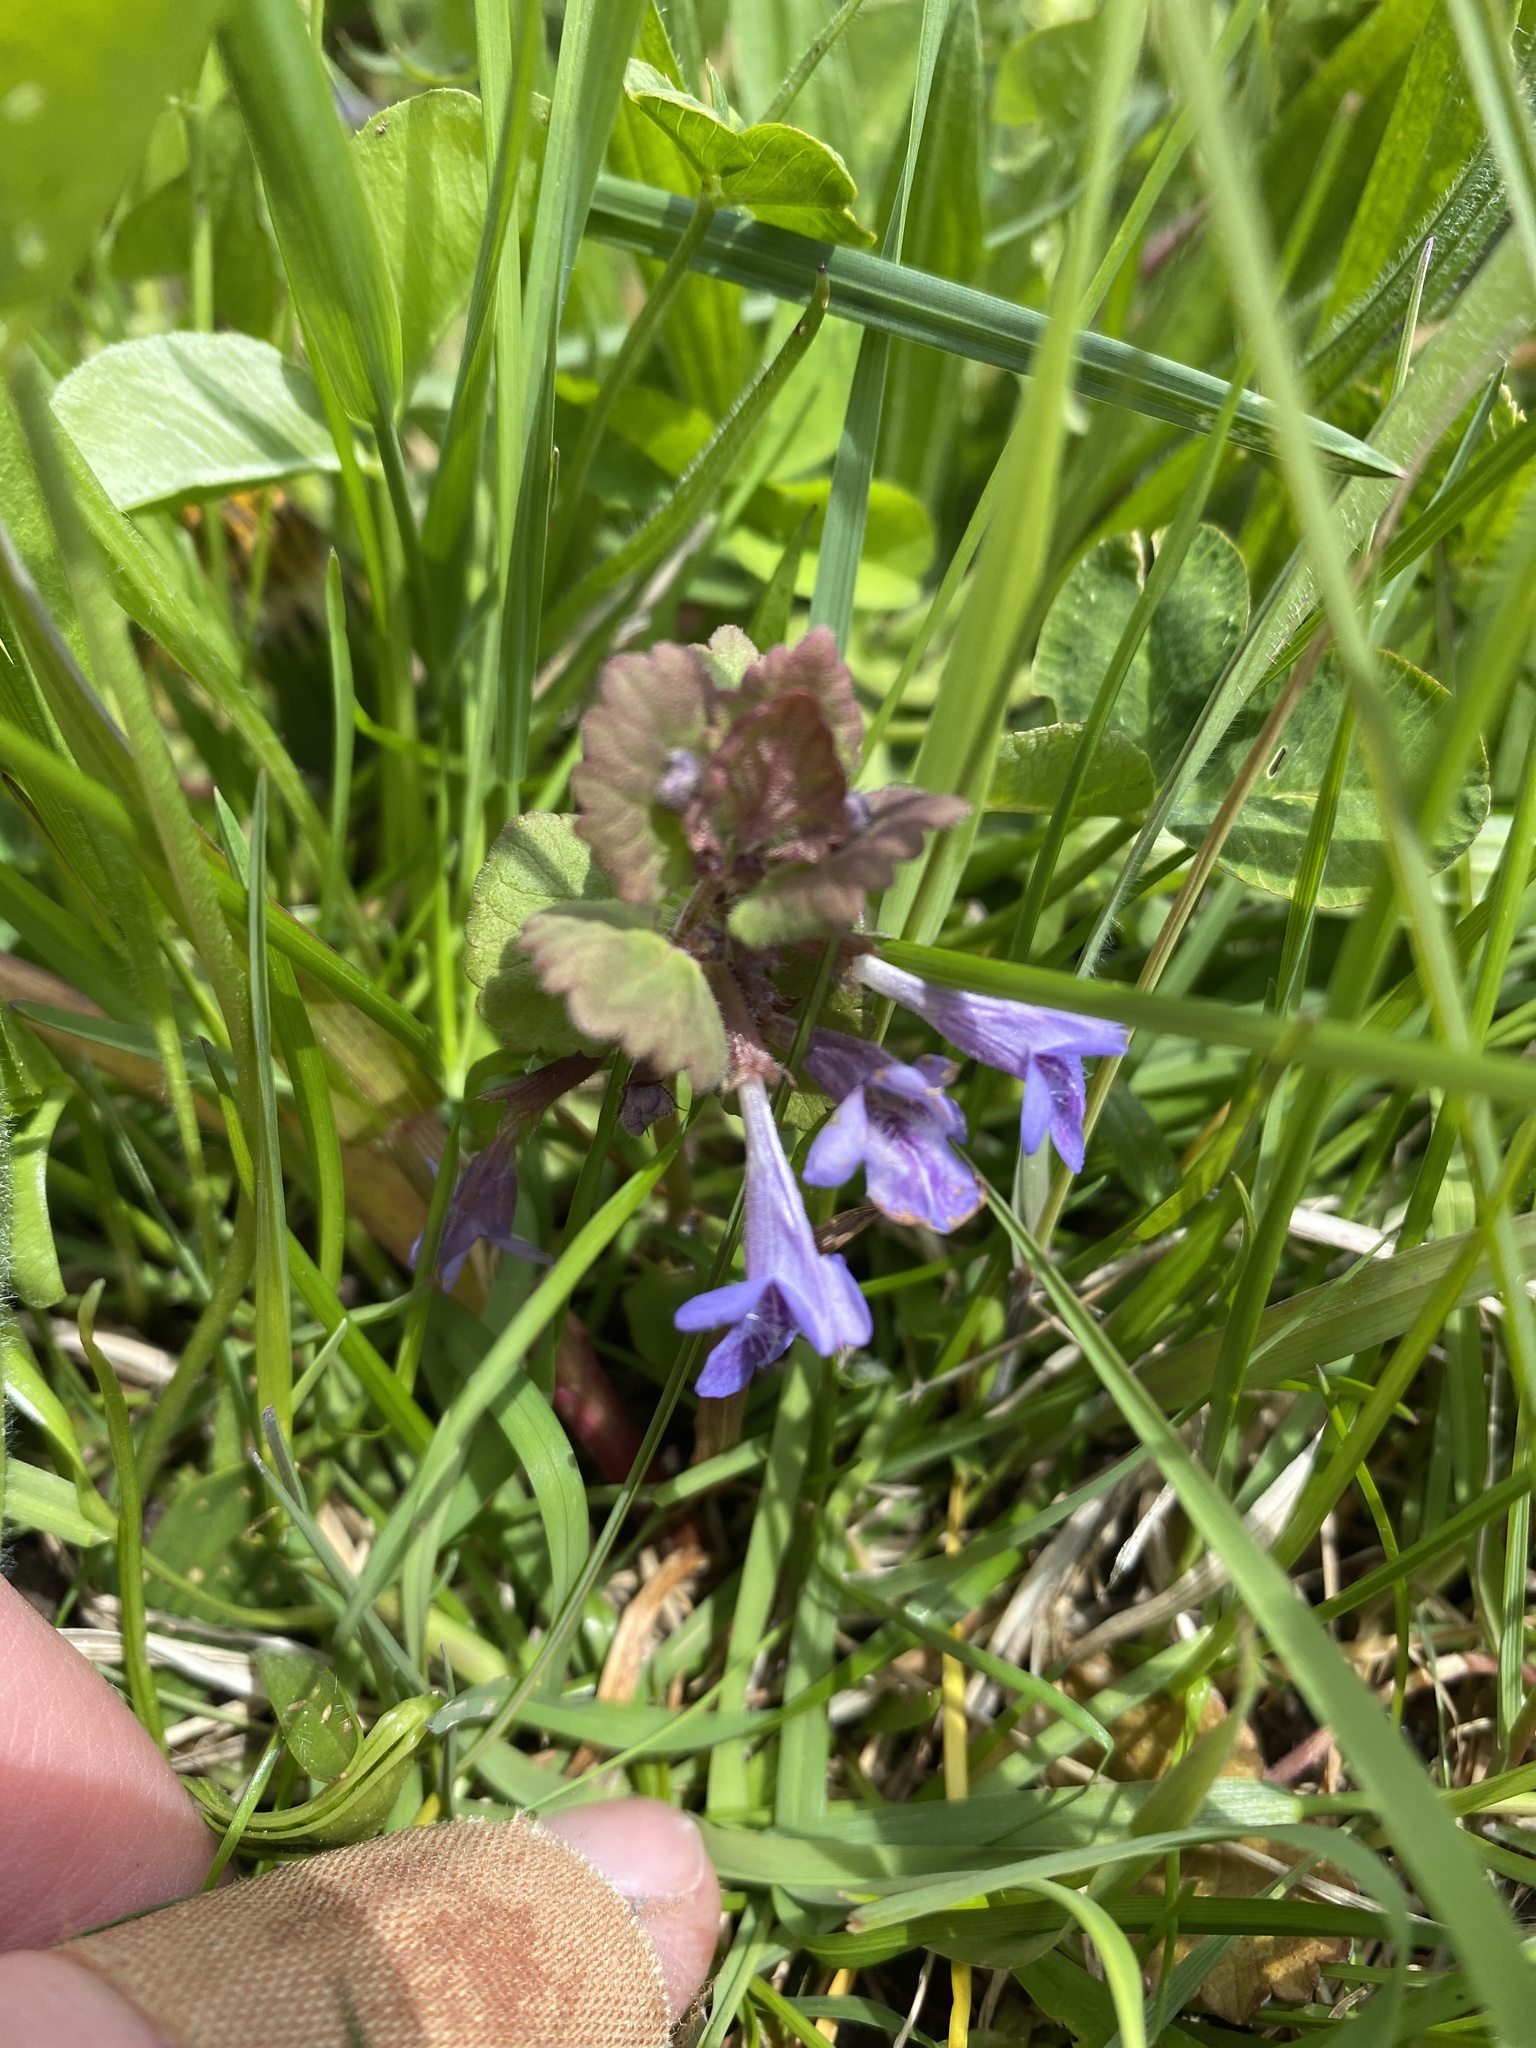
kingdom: Plantae
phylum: Tracheophyta
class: Magnoliopsida
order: Lamiales
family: Lamiaceae
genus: Glechoma
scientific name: Glechoma hederacea
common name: Ground ivy
